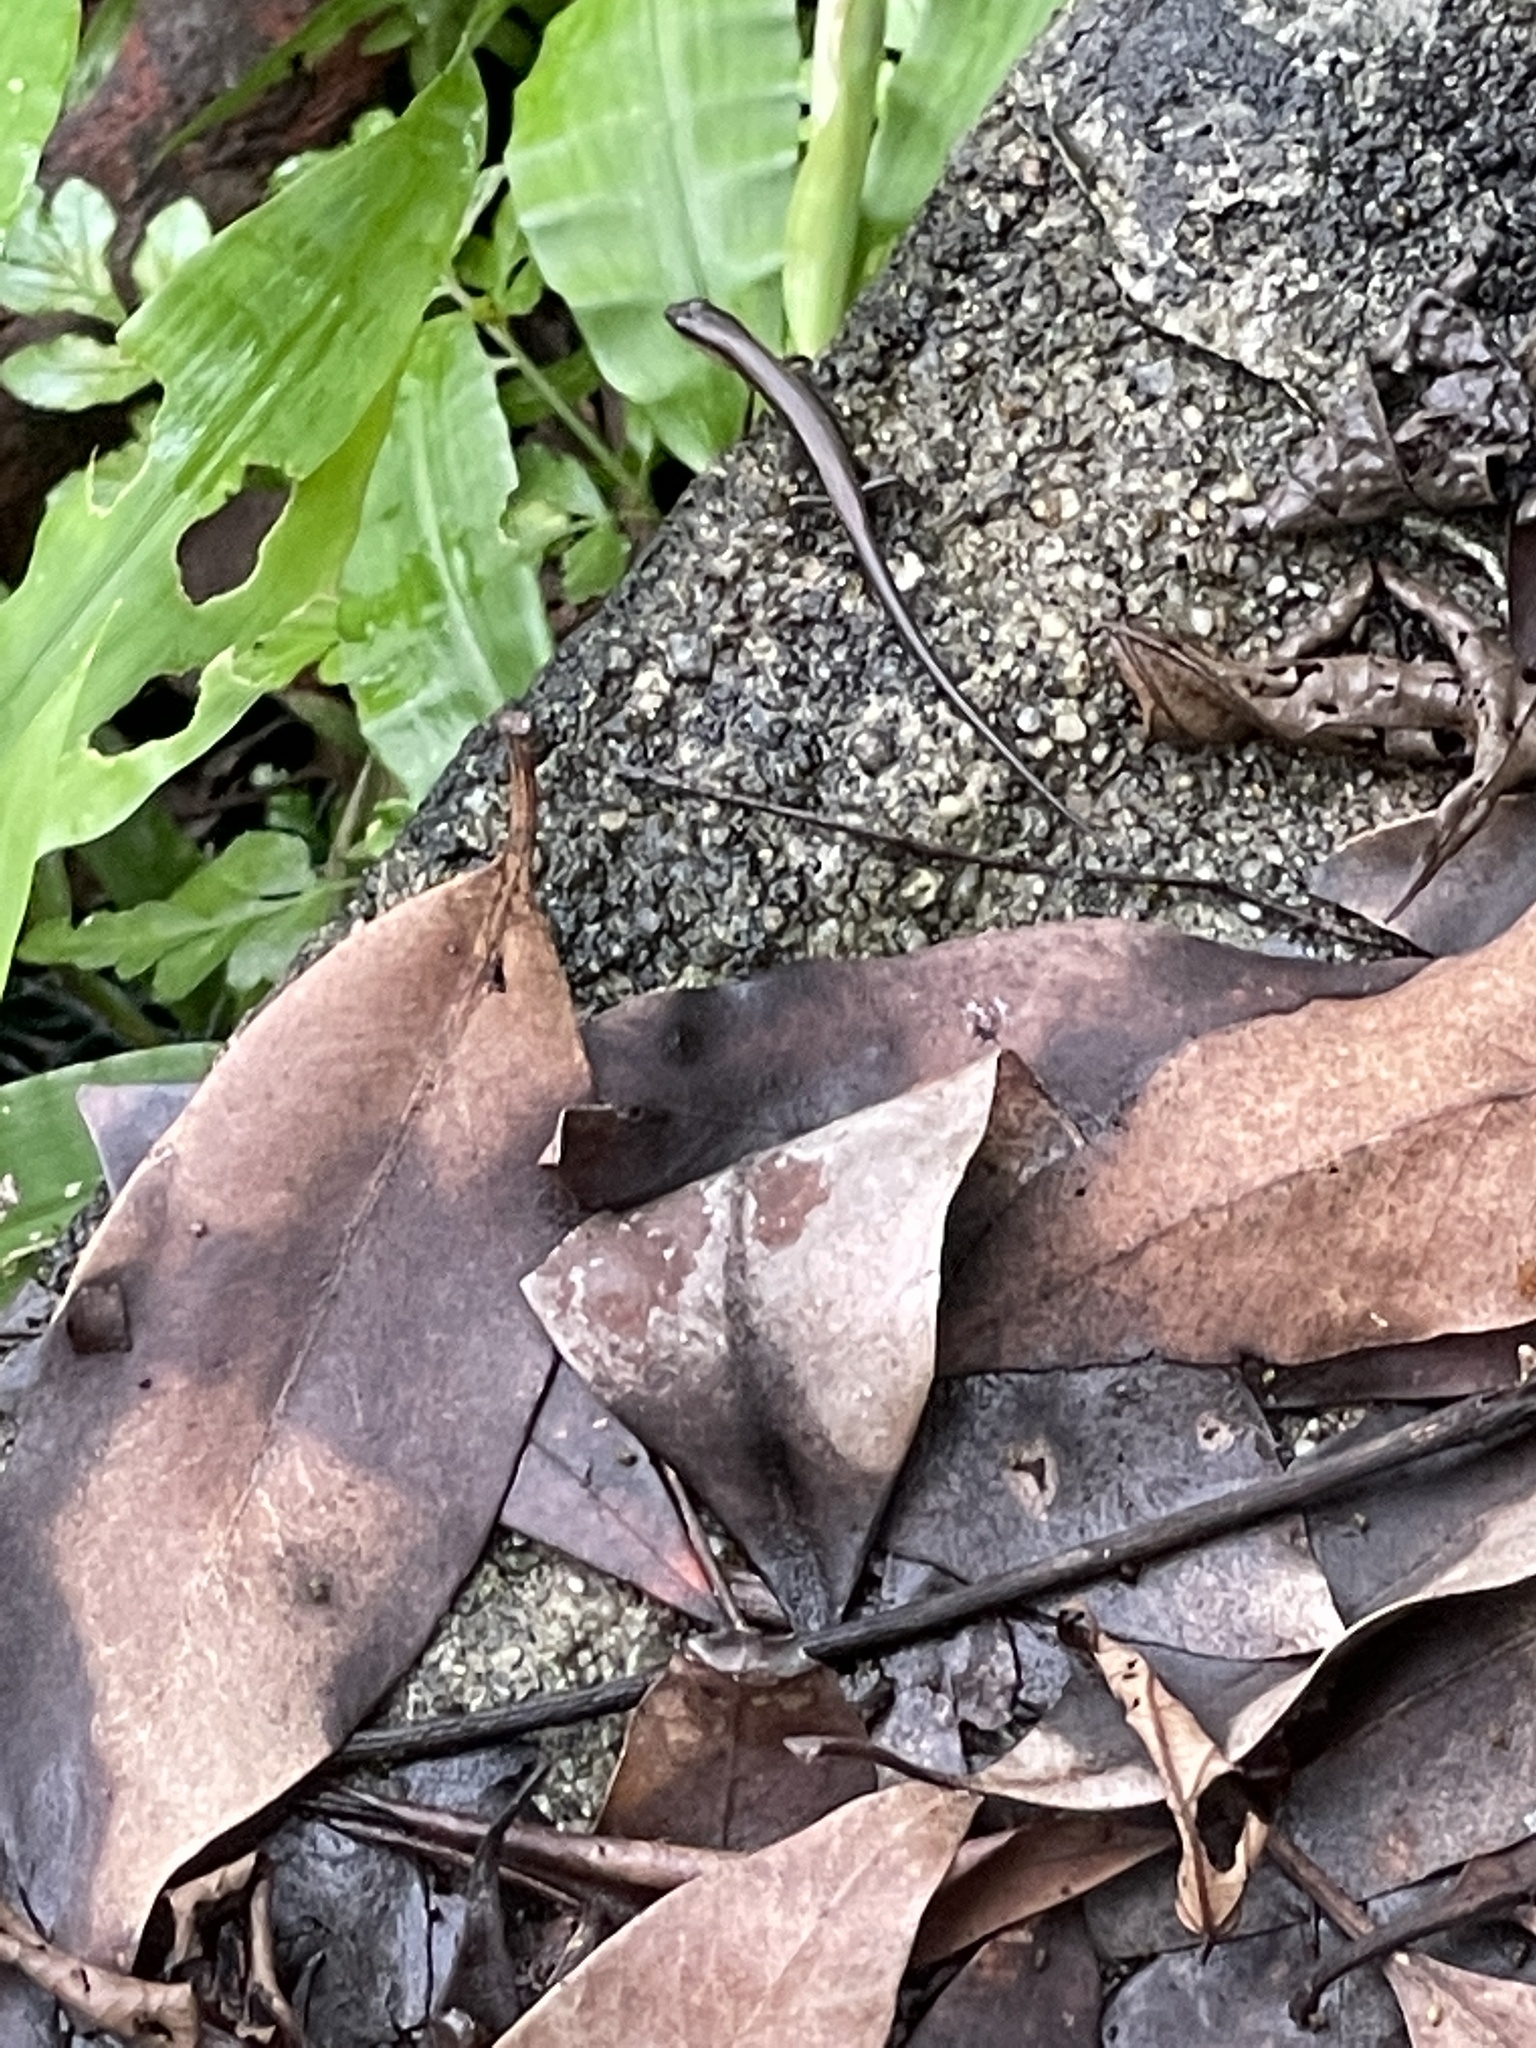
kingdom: Animalia
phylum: Chordata
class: Squamata
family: Scincidae
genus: Scincella
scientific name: Scincella reevesii
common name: Reeves’ smooth gecko
